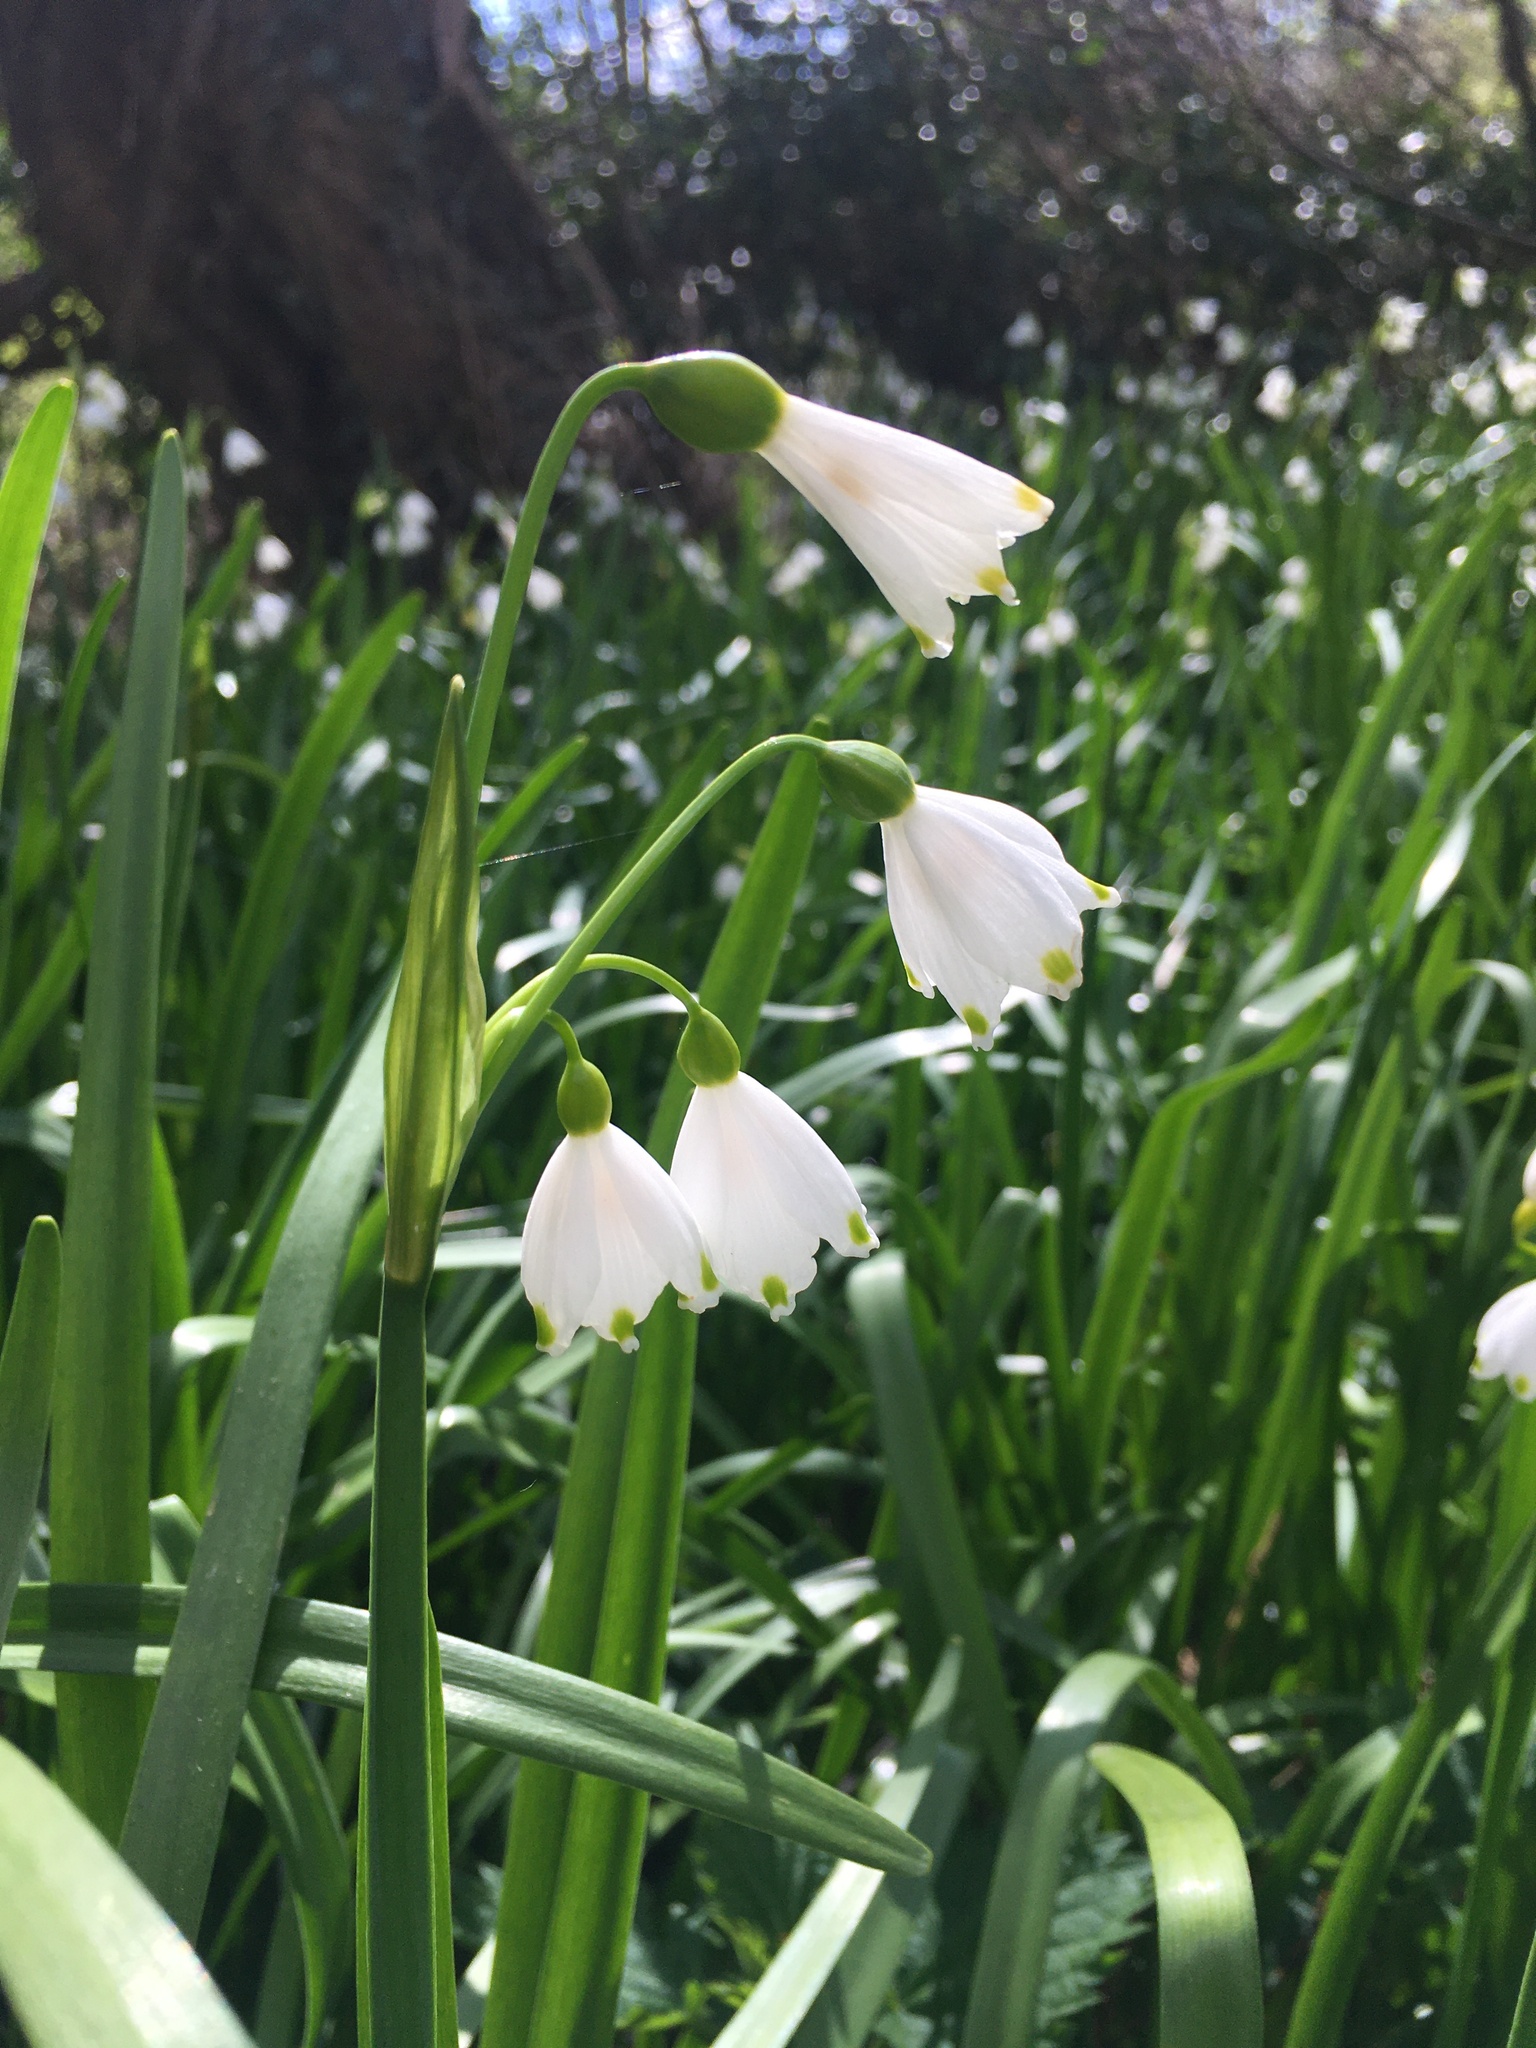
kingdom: Plantae
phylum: Tracheophyta
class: Liliopsida
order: Asparagales
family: Amaryllidaceae
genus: Leucojum
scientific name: Leucojum aestivum
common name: Summer snowflake
